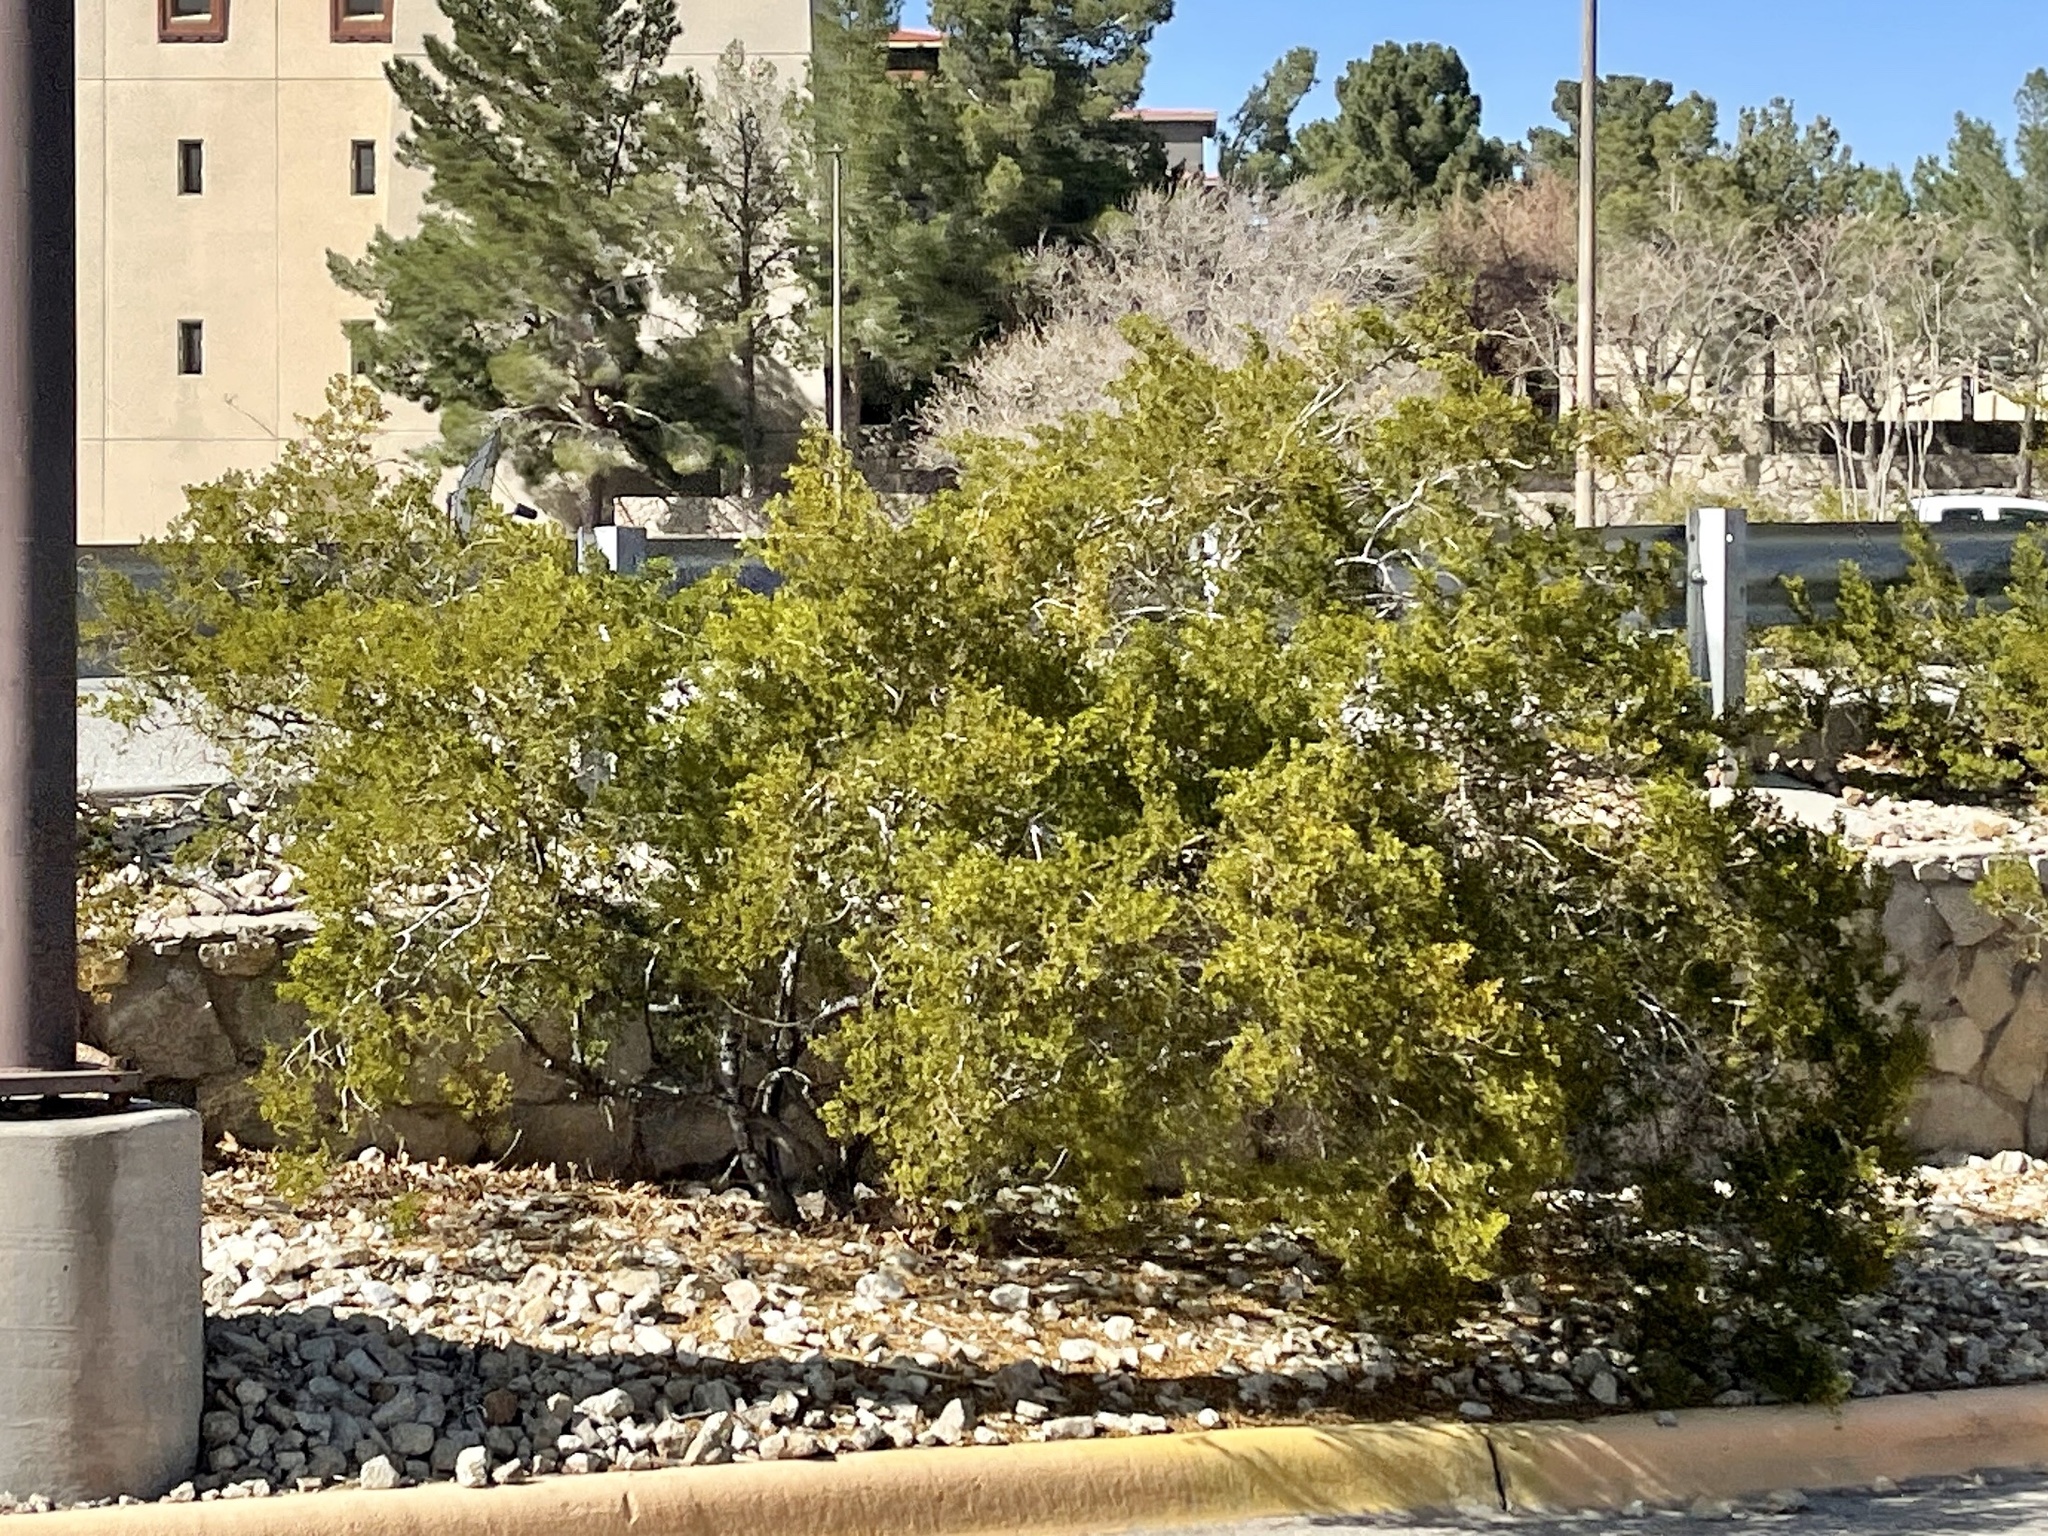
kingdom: Plantae
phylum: Tracheophyta
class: Magnoliopsida
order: Zygophyllales
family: Zygophyllaceae
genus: Larrea
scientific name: Larrea tridentata
